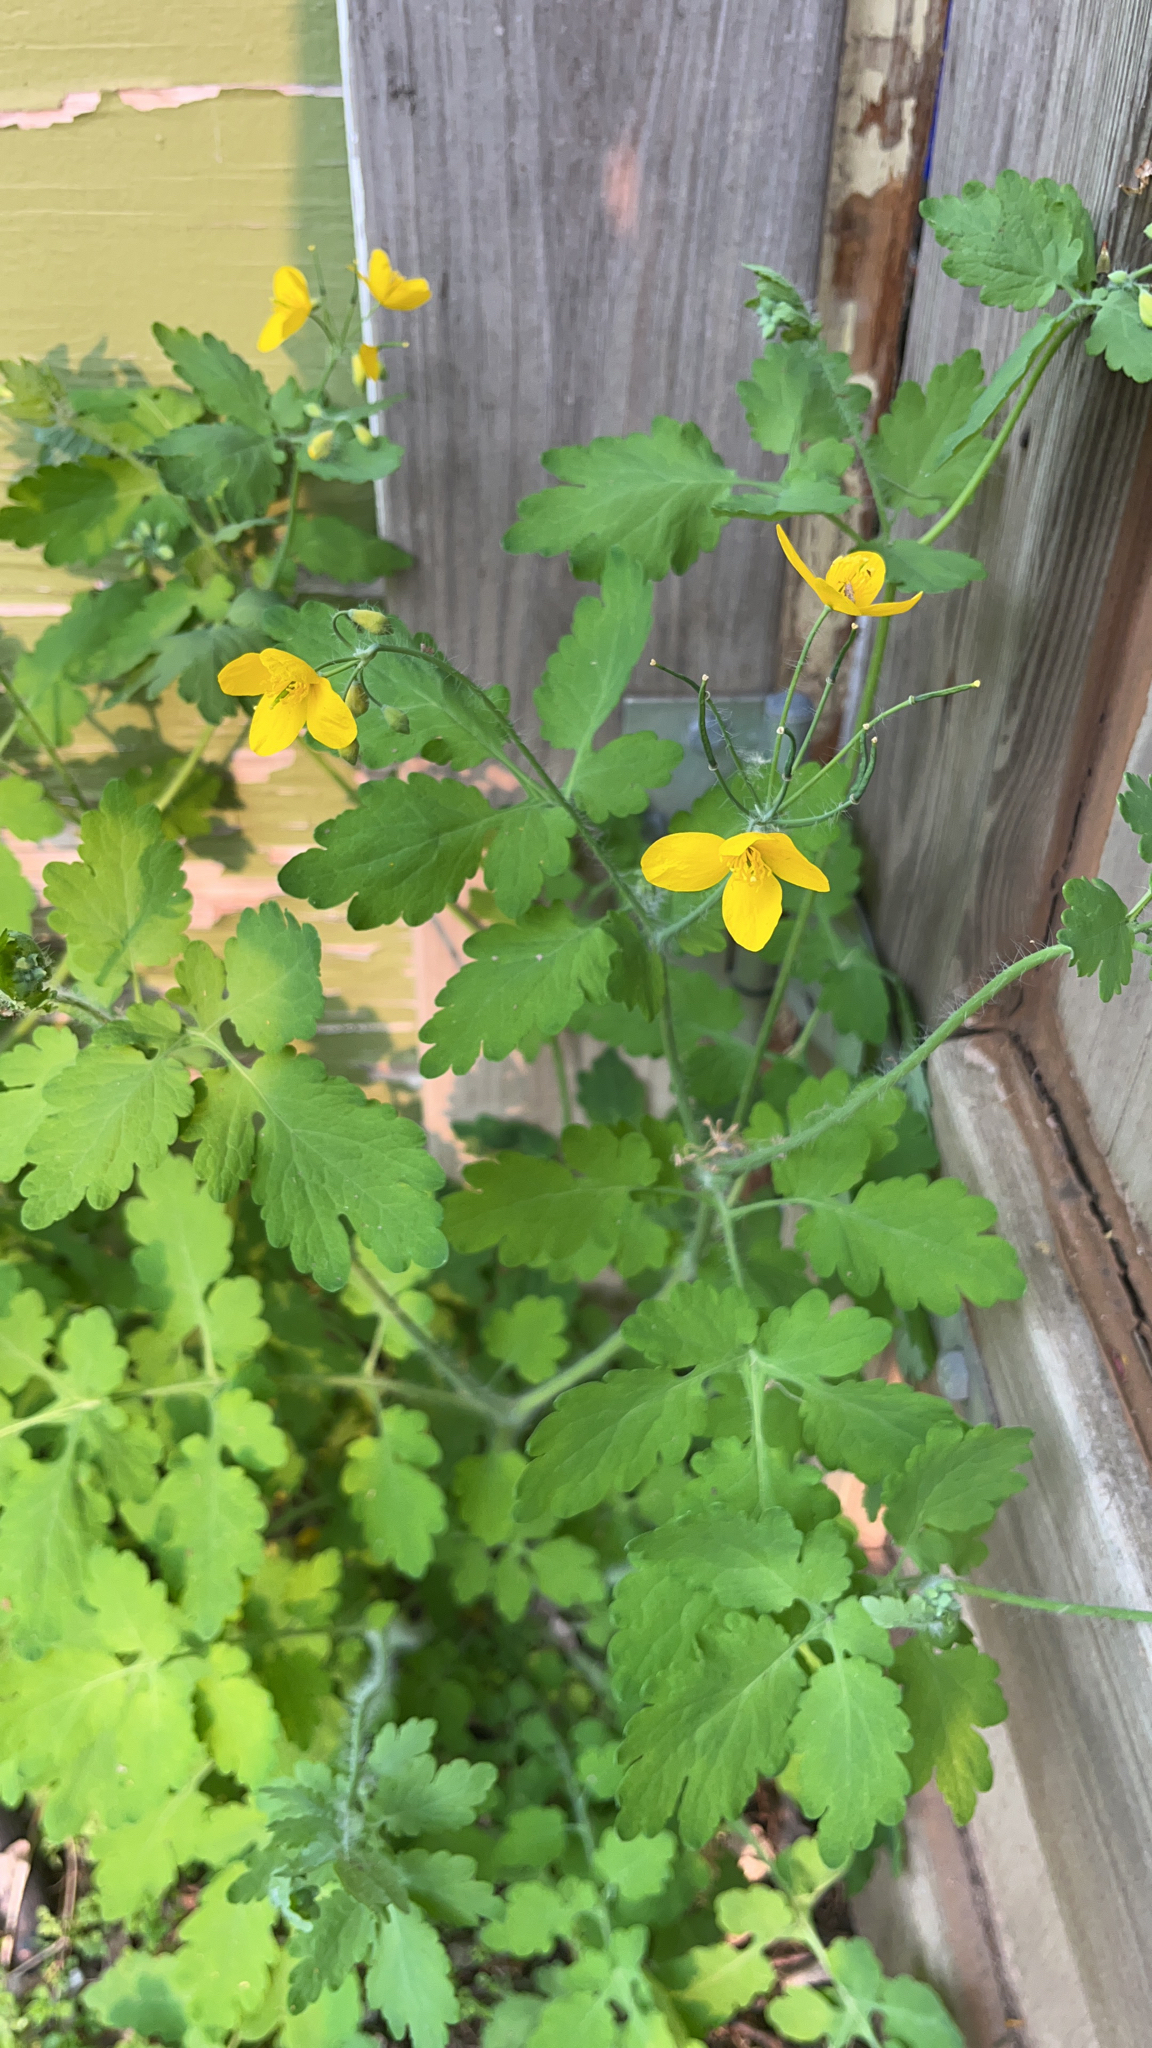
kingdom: Plantae
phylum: Tracheophyta
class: Magnoliopsida
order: Ranunculales
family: Papaveraceae
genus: Chelidonium
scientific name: Chelidonium majus
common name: Greater celandine
